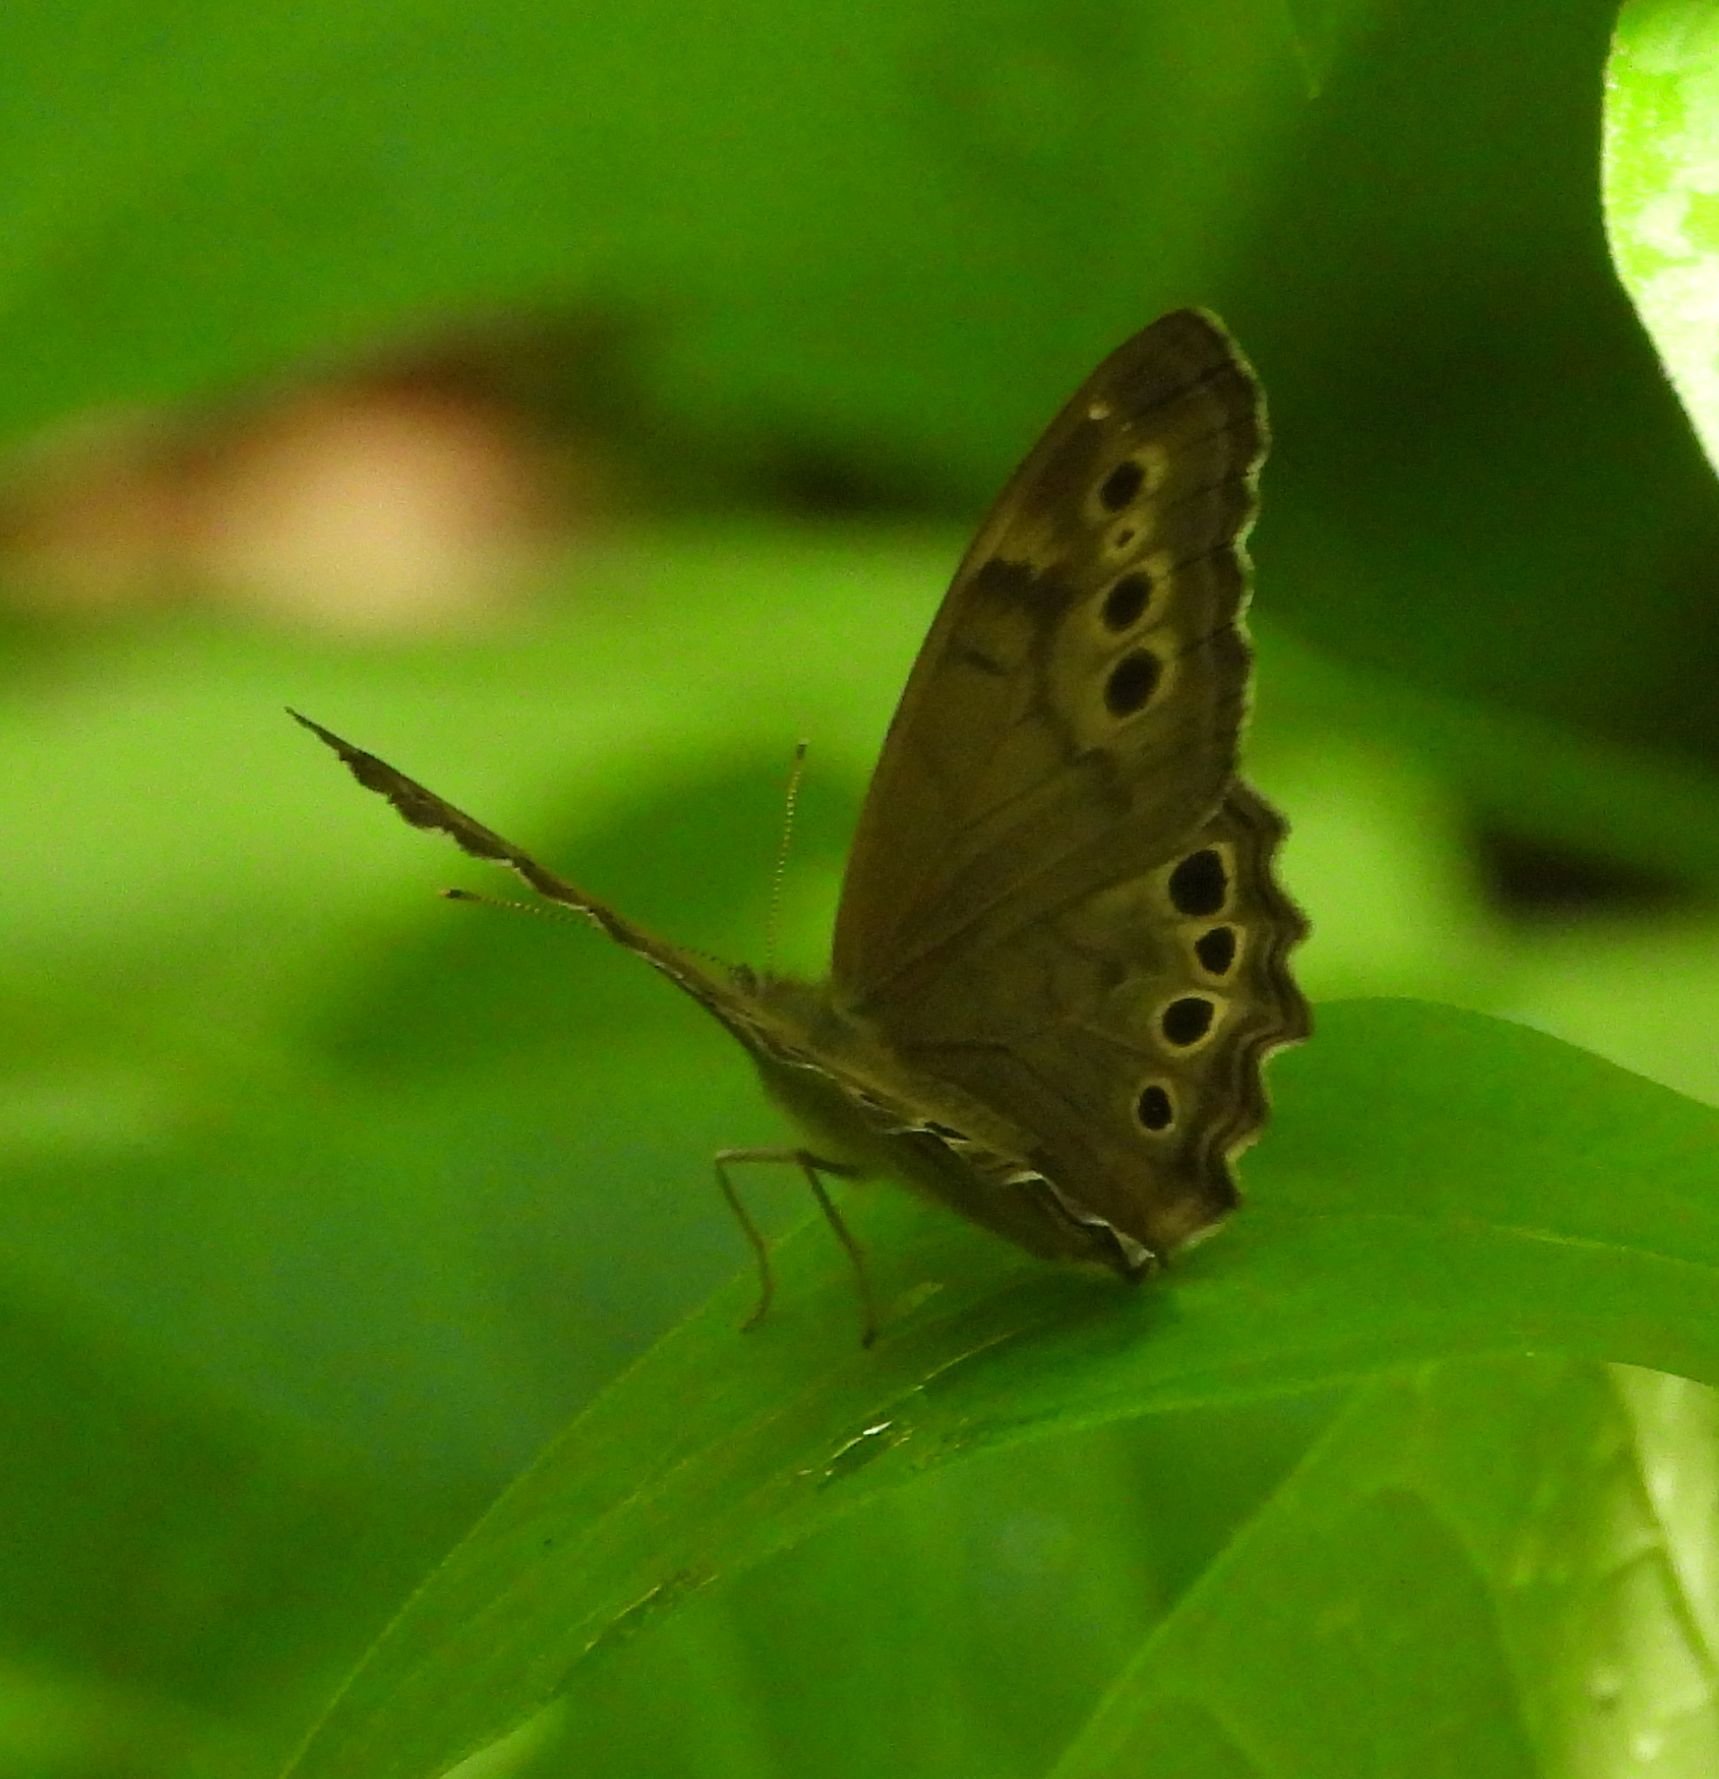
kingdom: Animalia
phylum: Arthropoda
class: Insecta
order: Lepidoptera
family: Nymphalidae
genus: Lethe
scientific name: Lethe anthedon
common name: Northern pearly-eye
